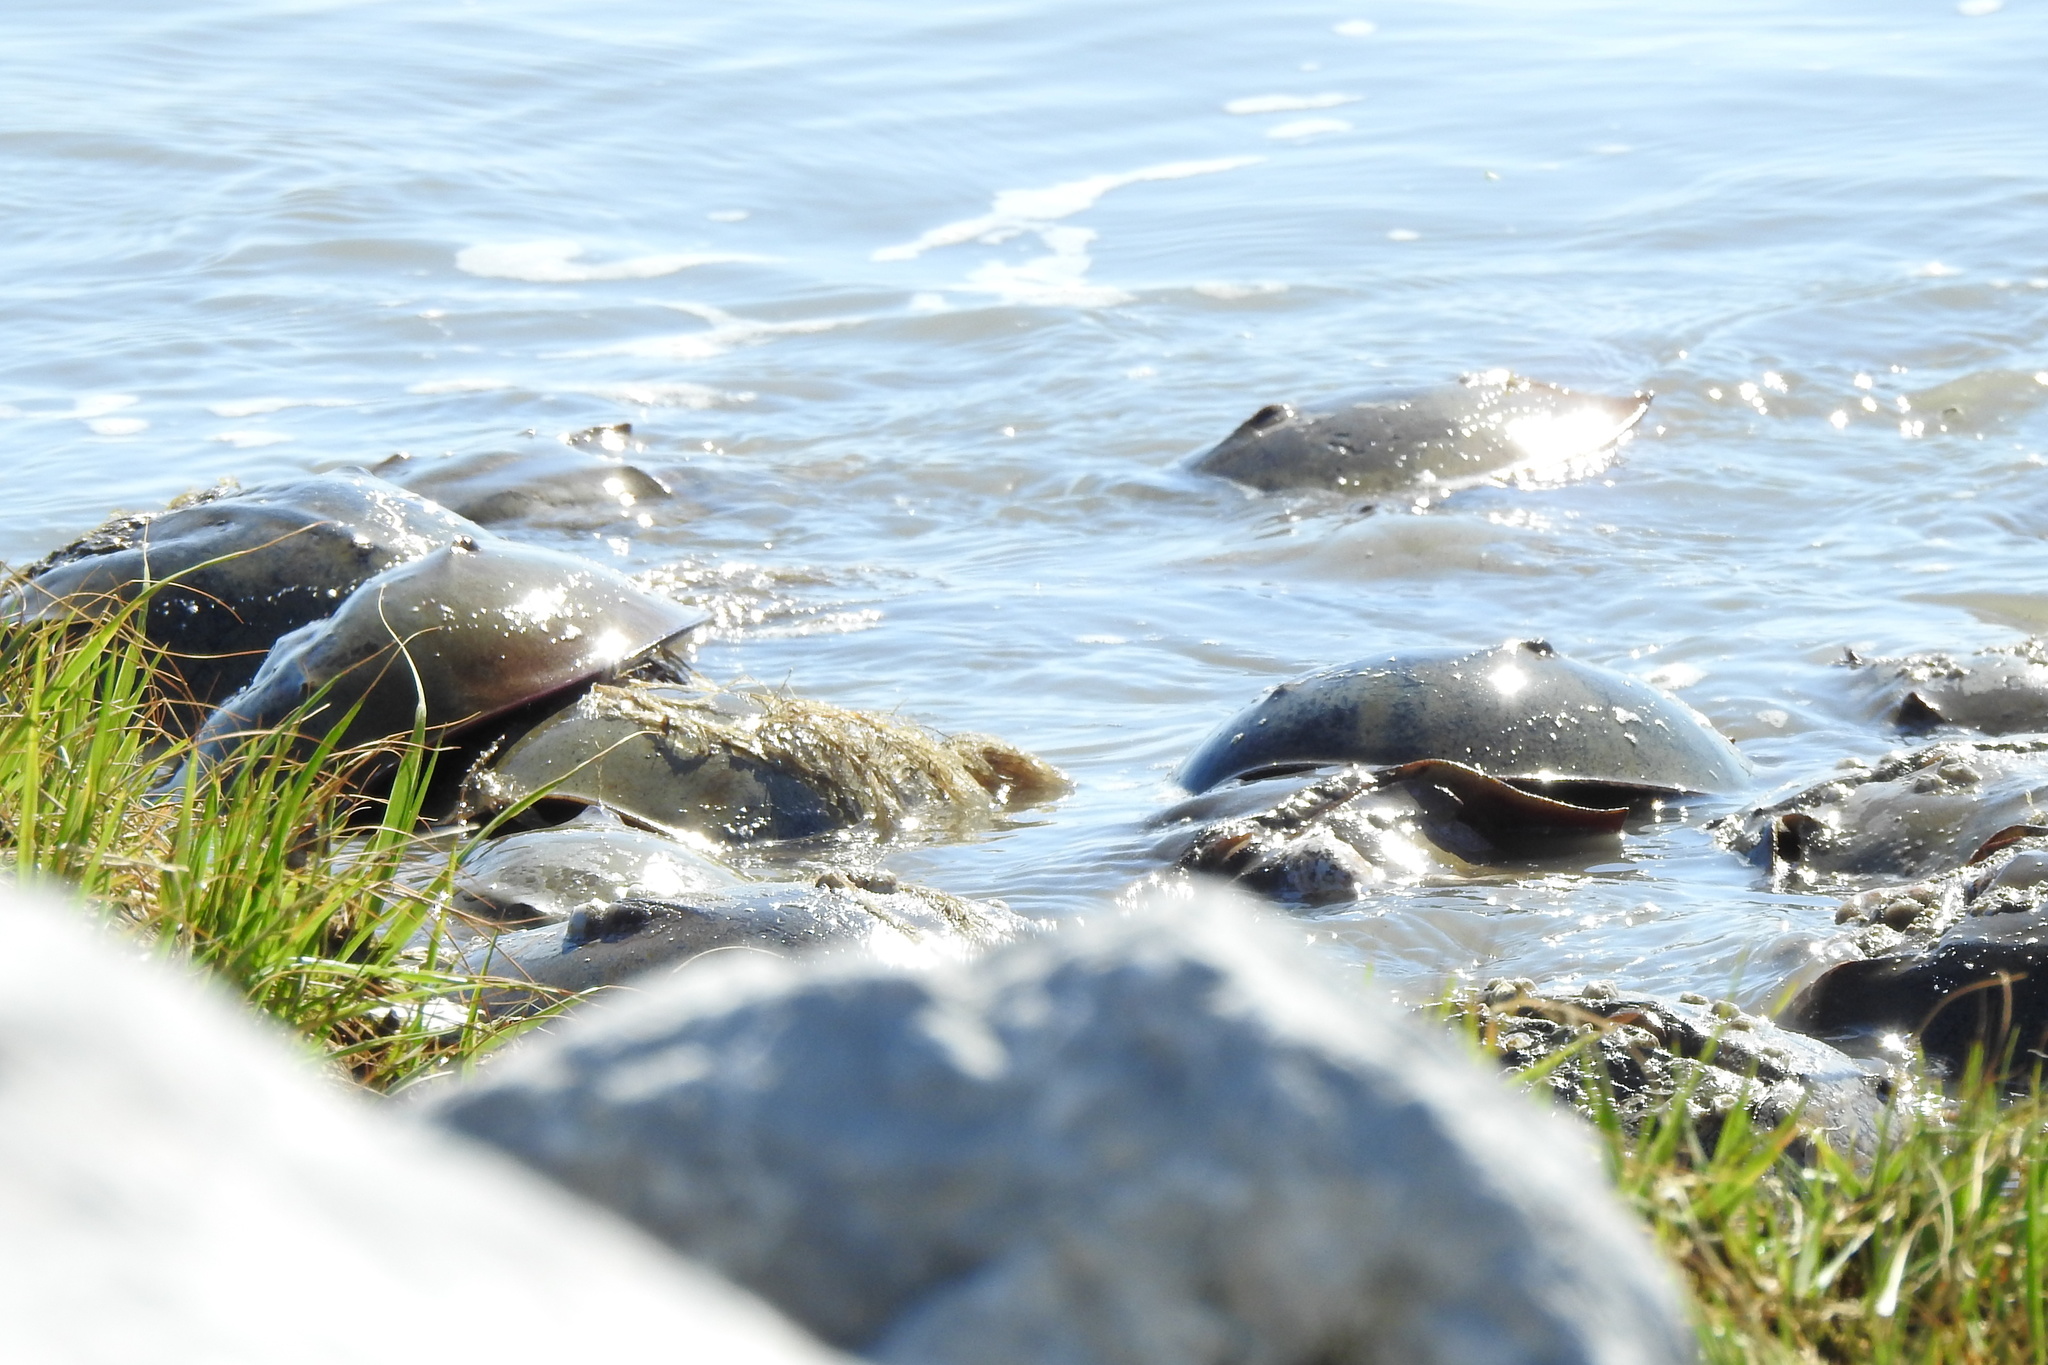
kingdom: Animalia
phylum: Arthropoda
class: Merostomata
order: Xiphosurida
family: Limulidae
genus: Limulus
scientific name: Limulus polyphemus
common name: Horseshoe crab
